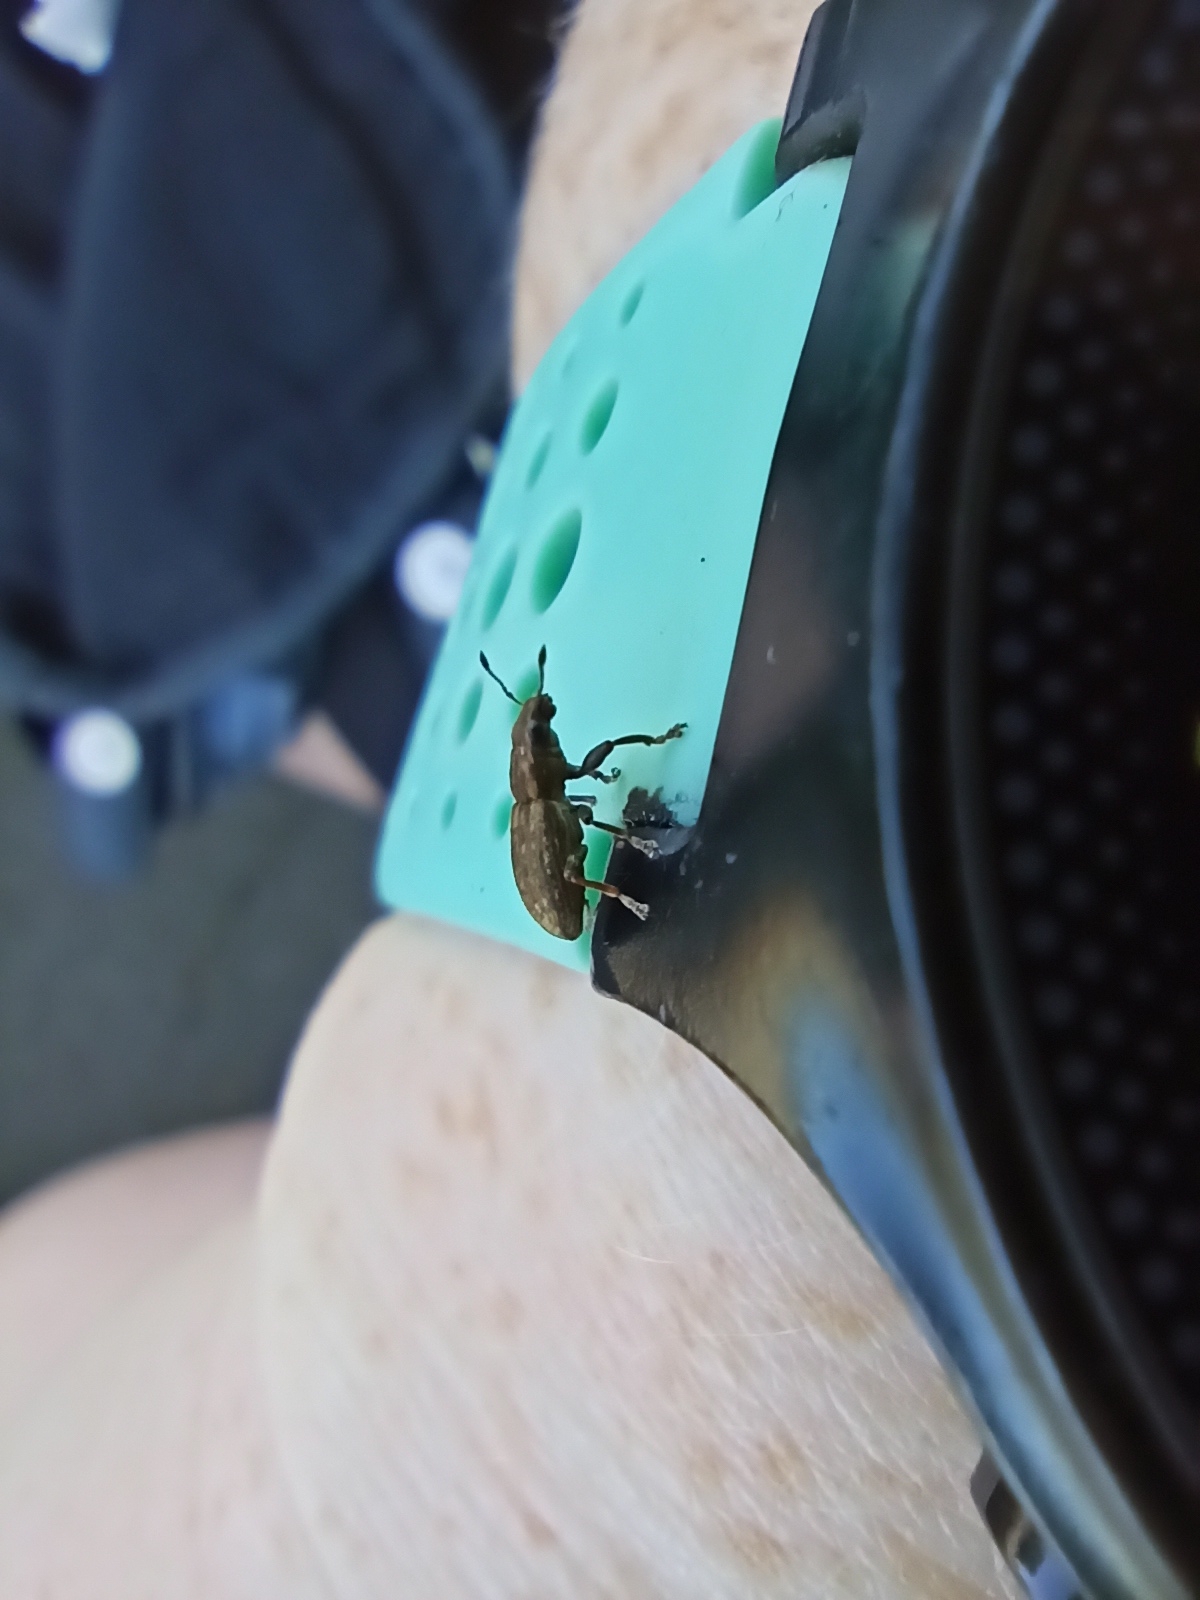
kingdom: Animalia
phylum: Arthropoda
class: Insecta
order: Coleoptera
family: Curculionidae
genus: Sitona
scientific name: Sitona obsoletus
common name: Weevil
